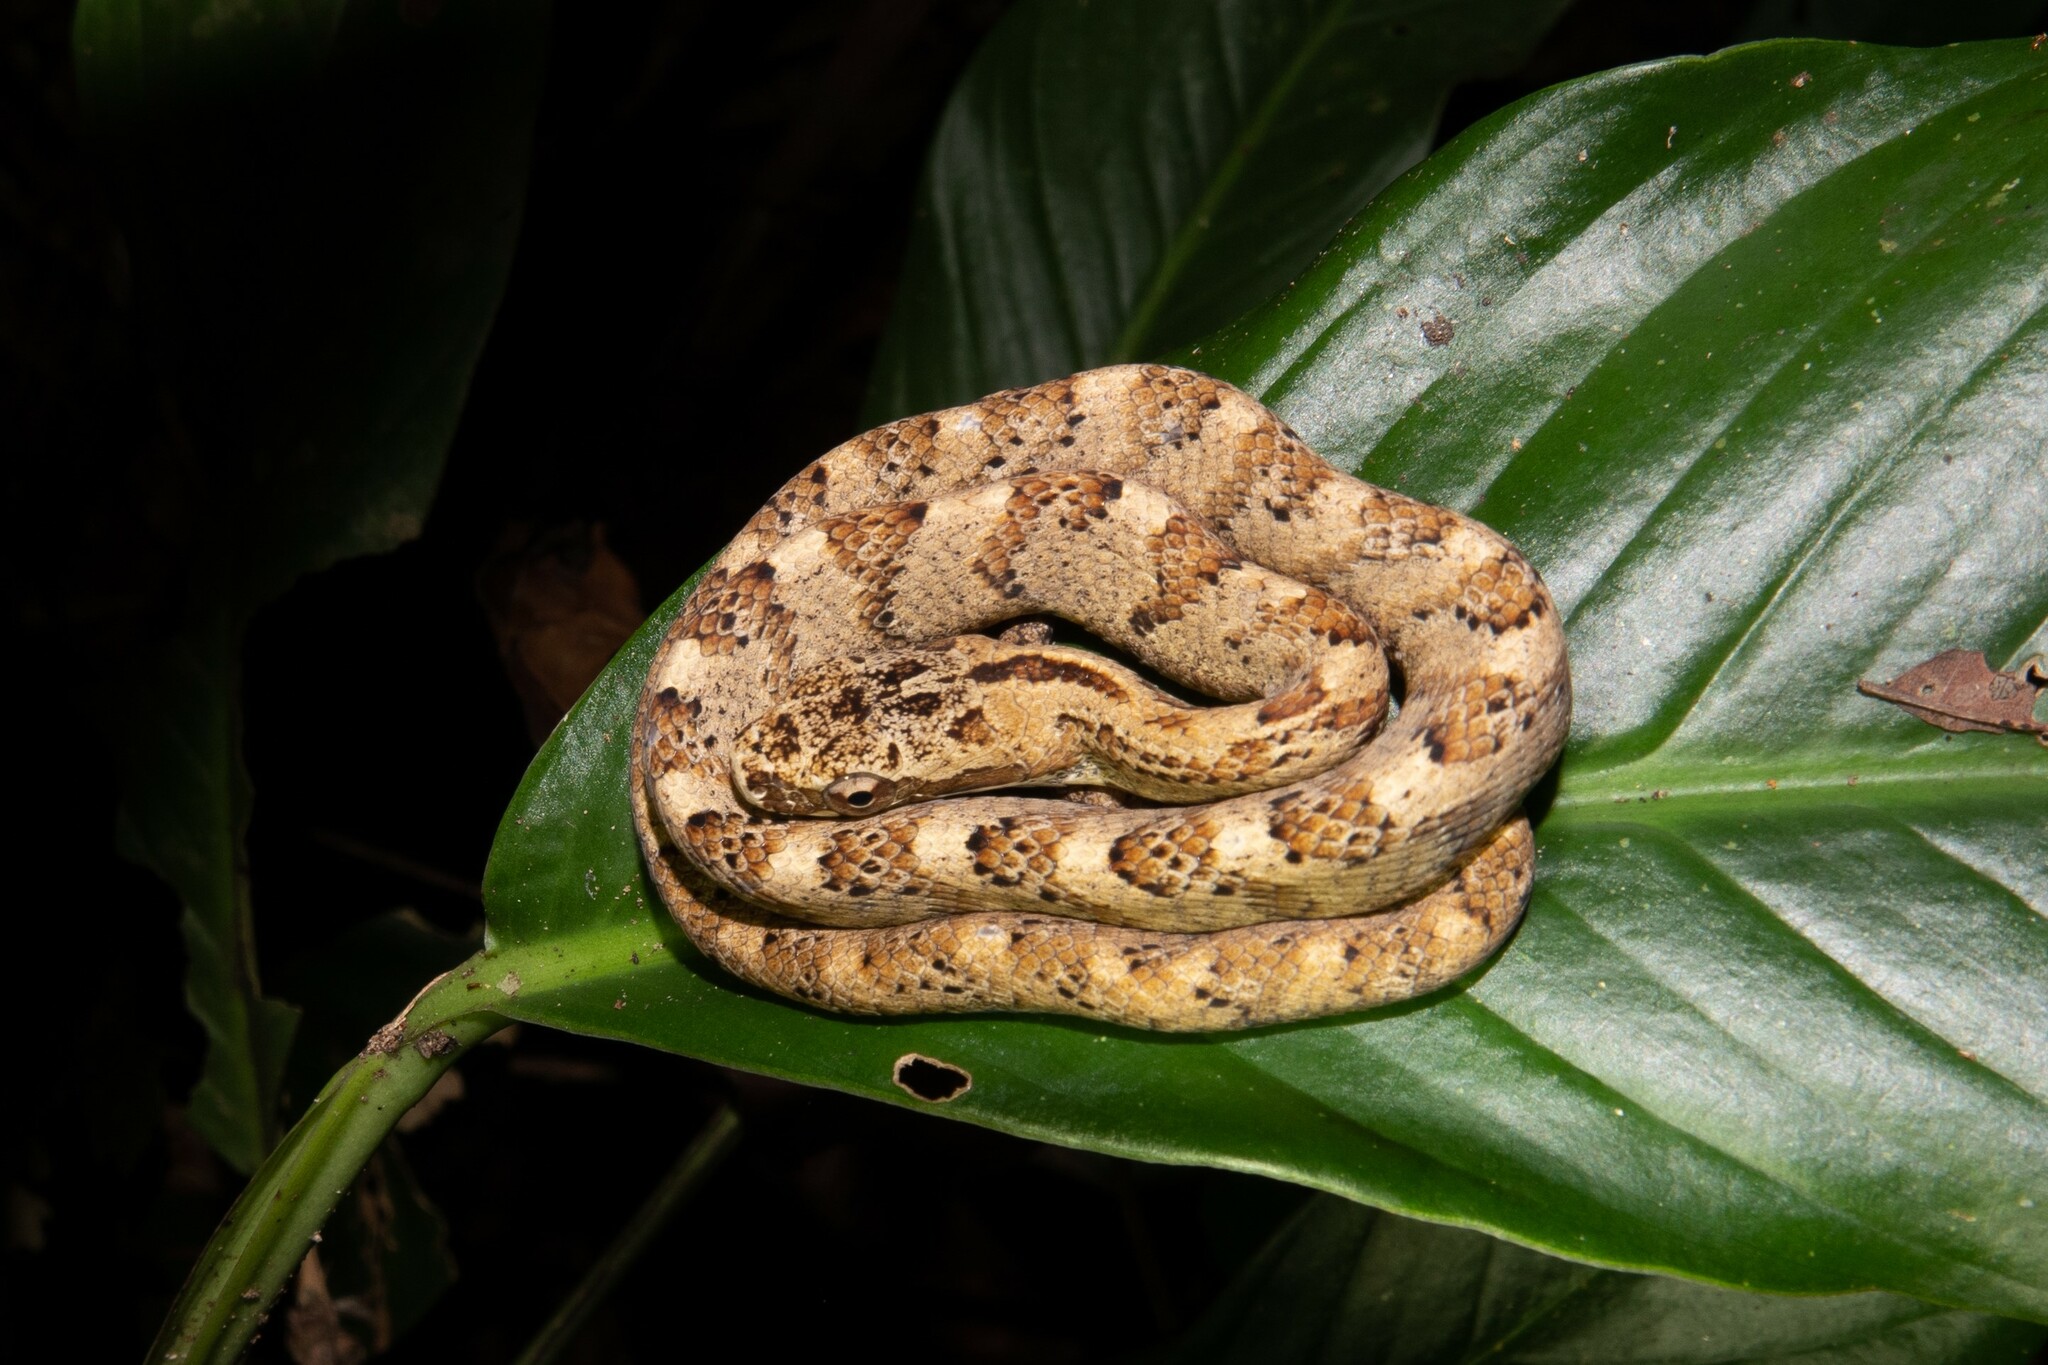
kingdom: Animalia
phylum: Chordata
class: Squamata
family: Colubridae
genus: Chironius
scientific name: Chironius quadricarinatus
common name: Central sipo
